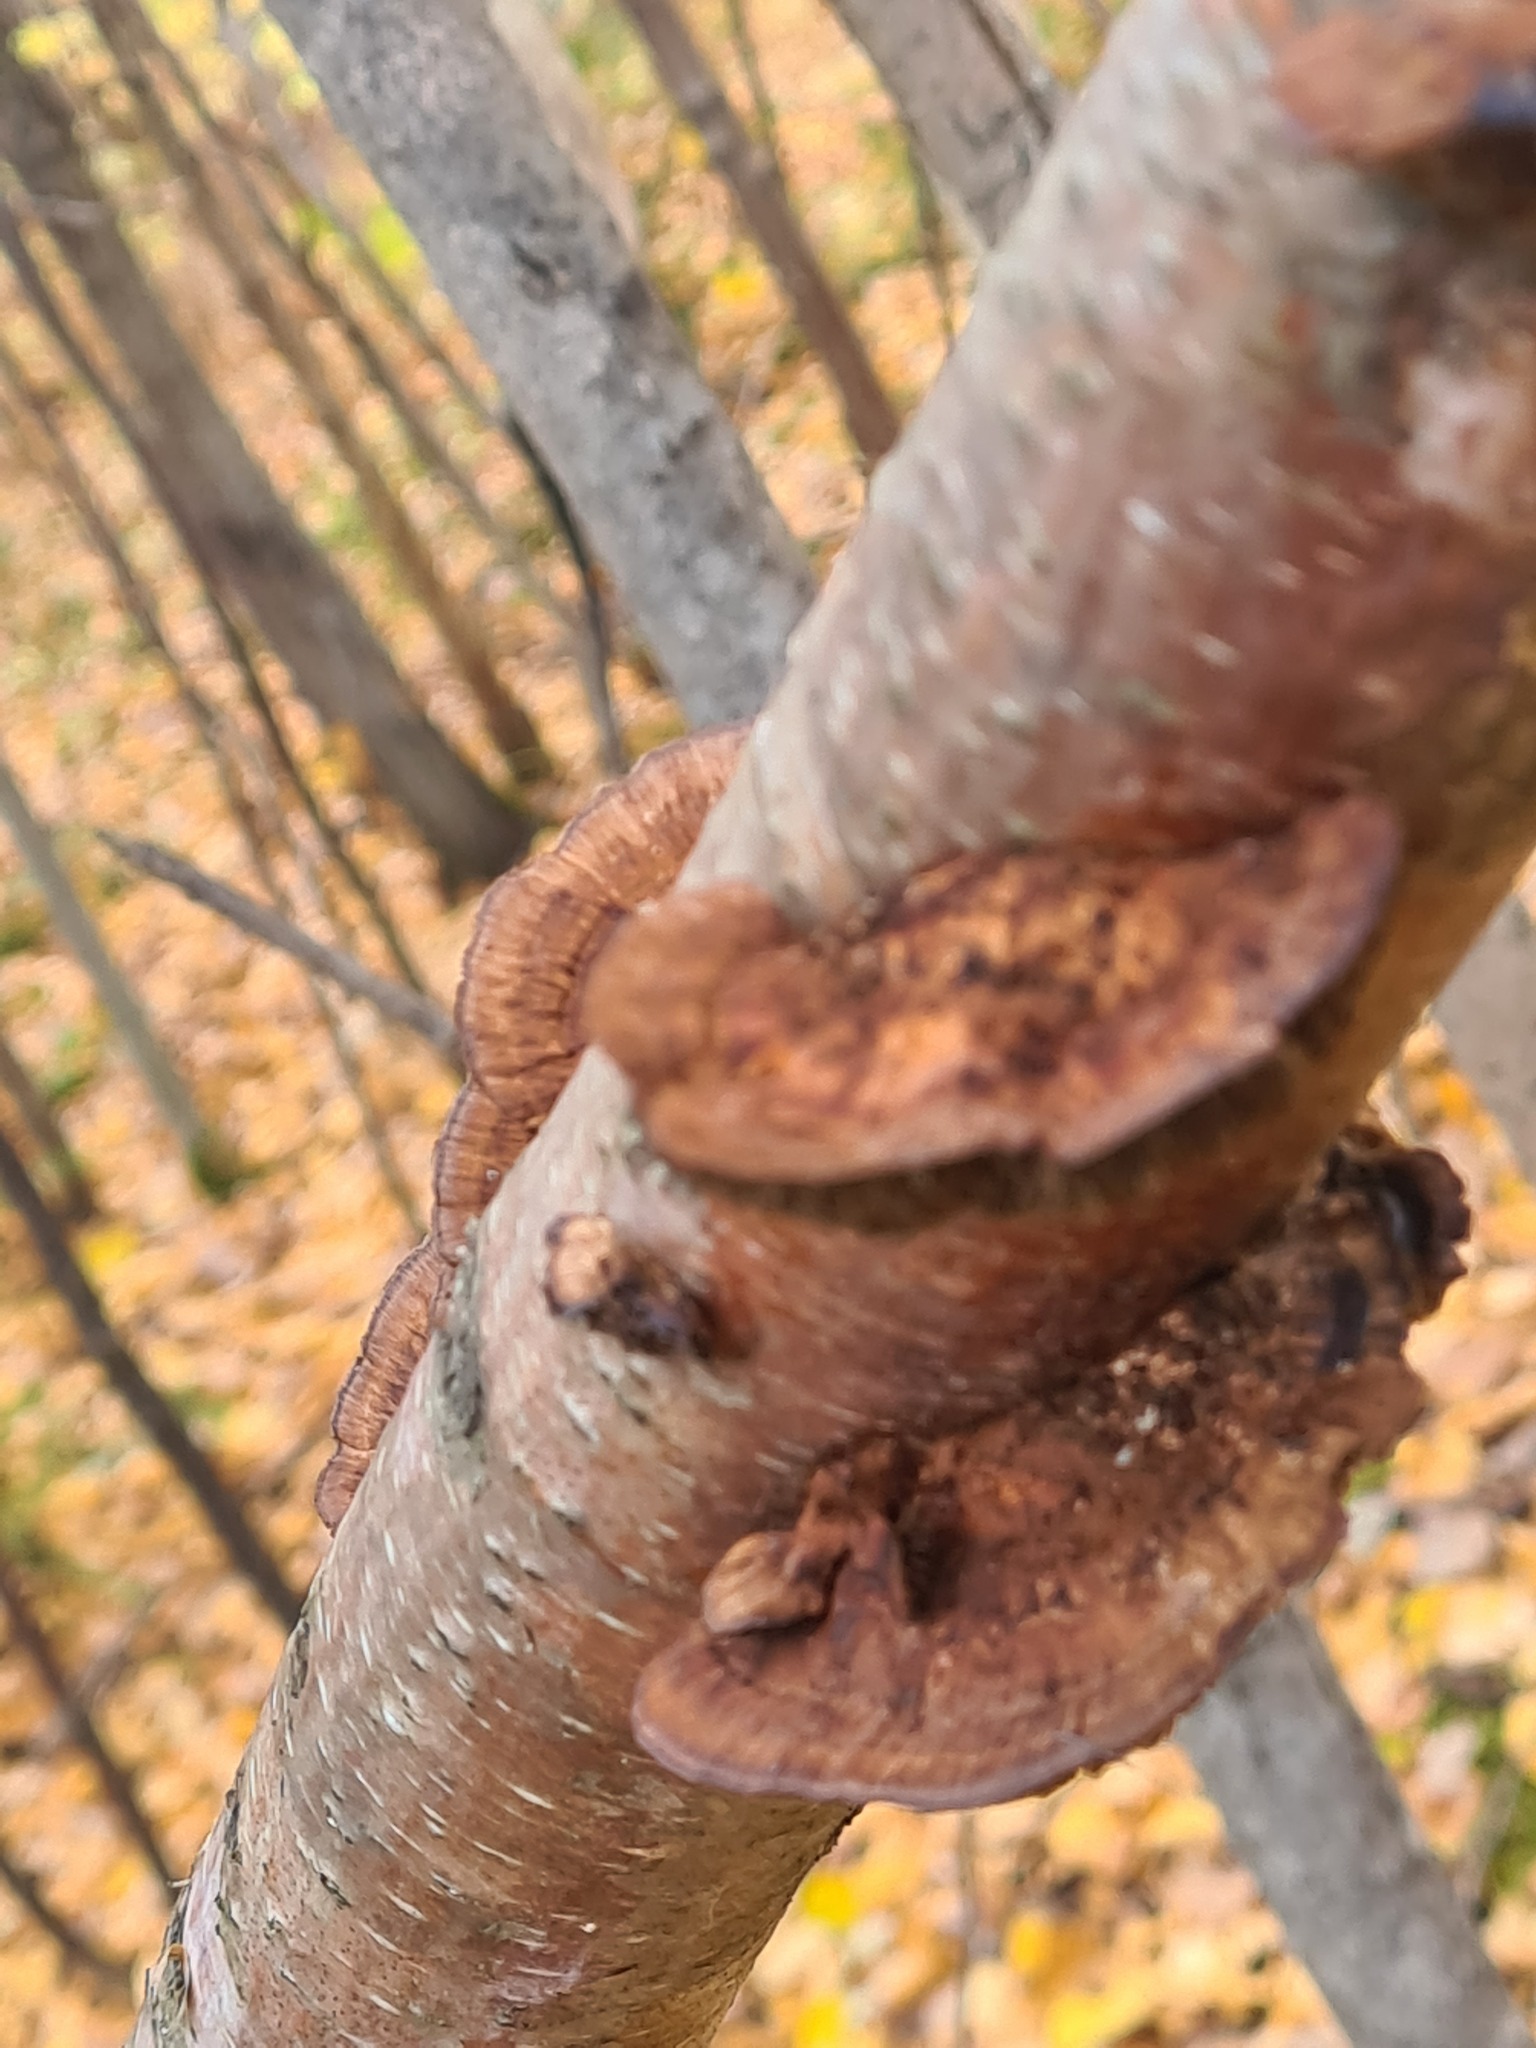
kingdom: Fungi
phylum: Basidiomycota
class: Agaricomycetes
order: Polyporales
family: Polyporaceae
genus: Daedaleopsis
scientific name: Daedaleopsis tricolor
